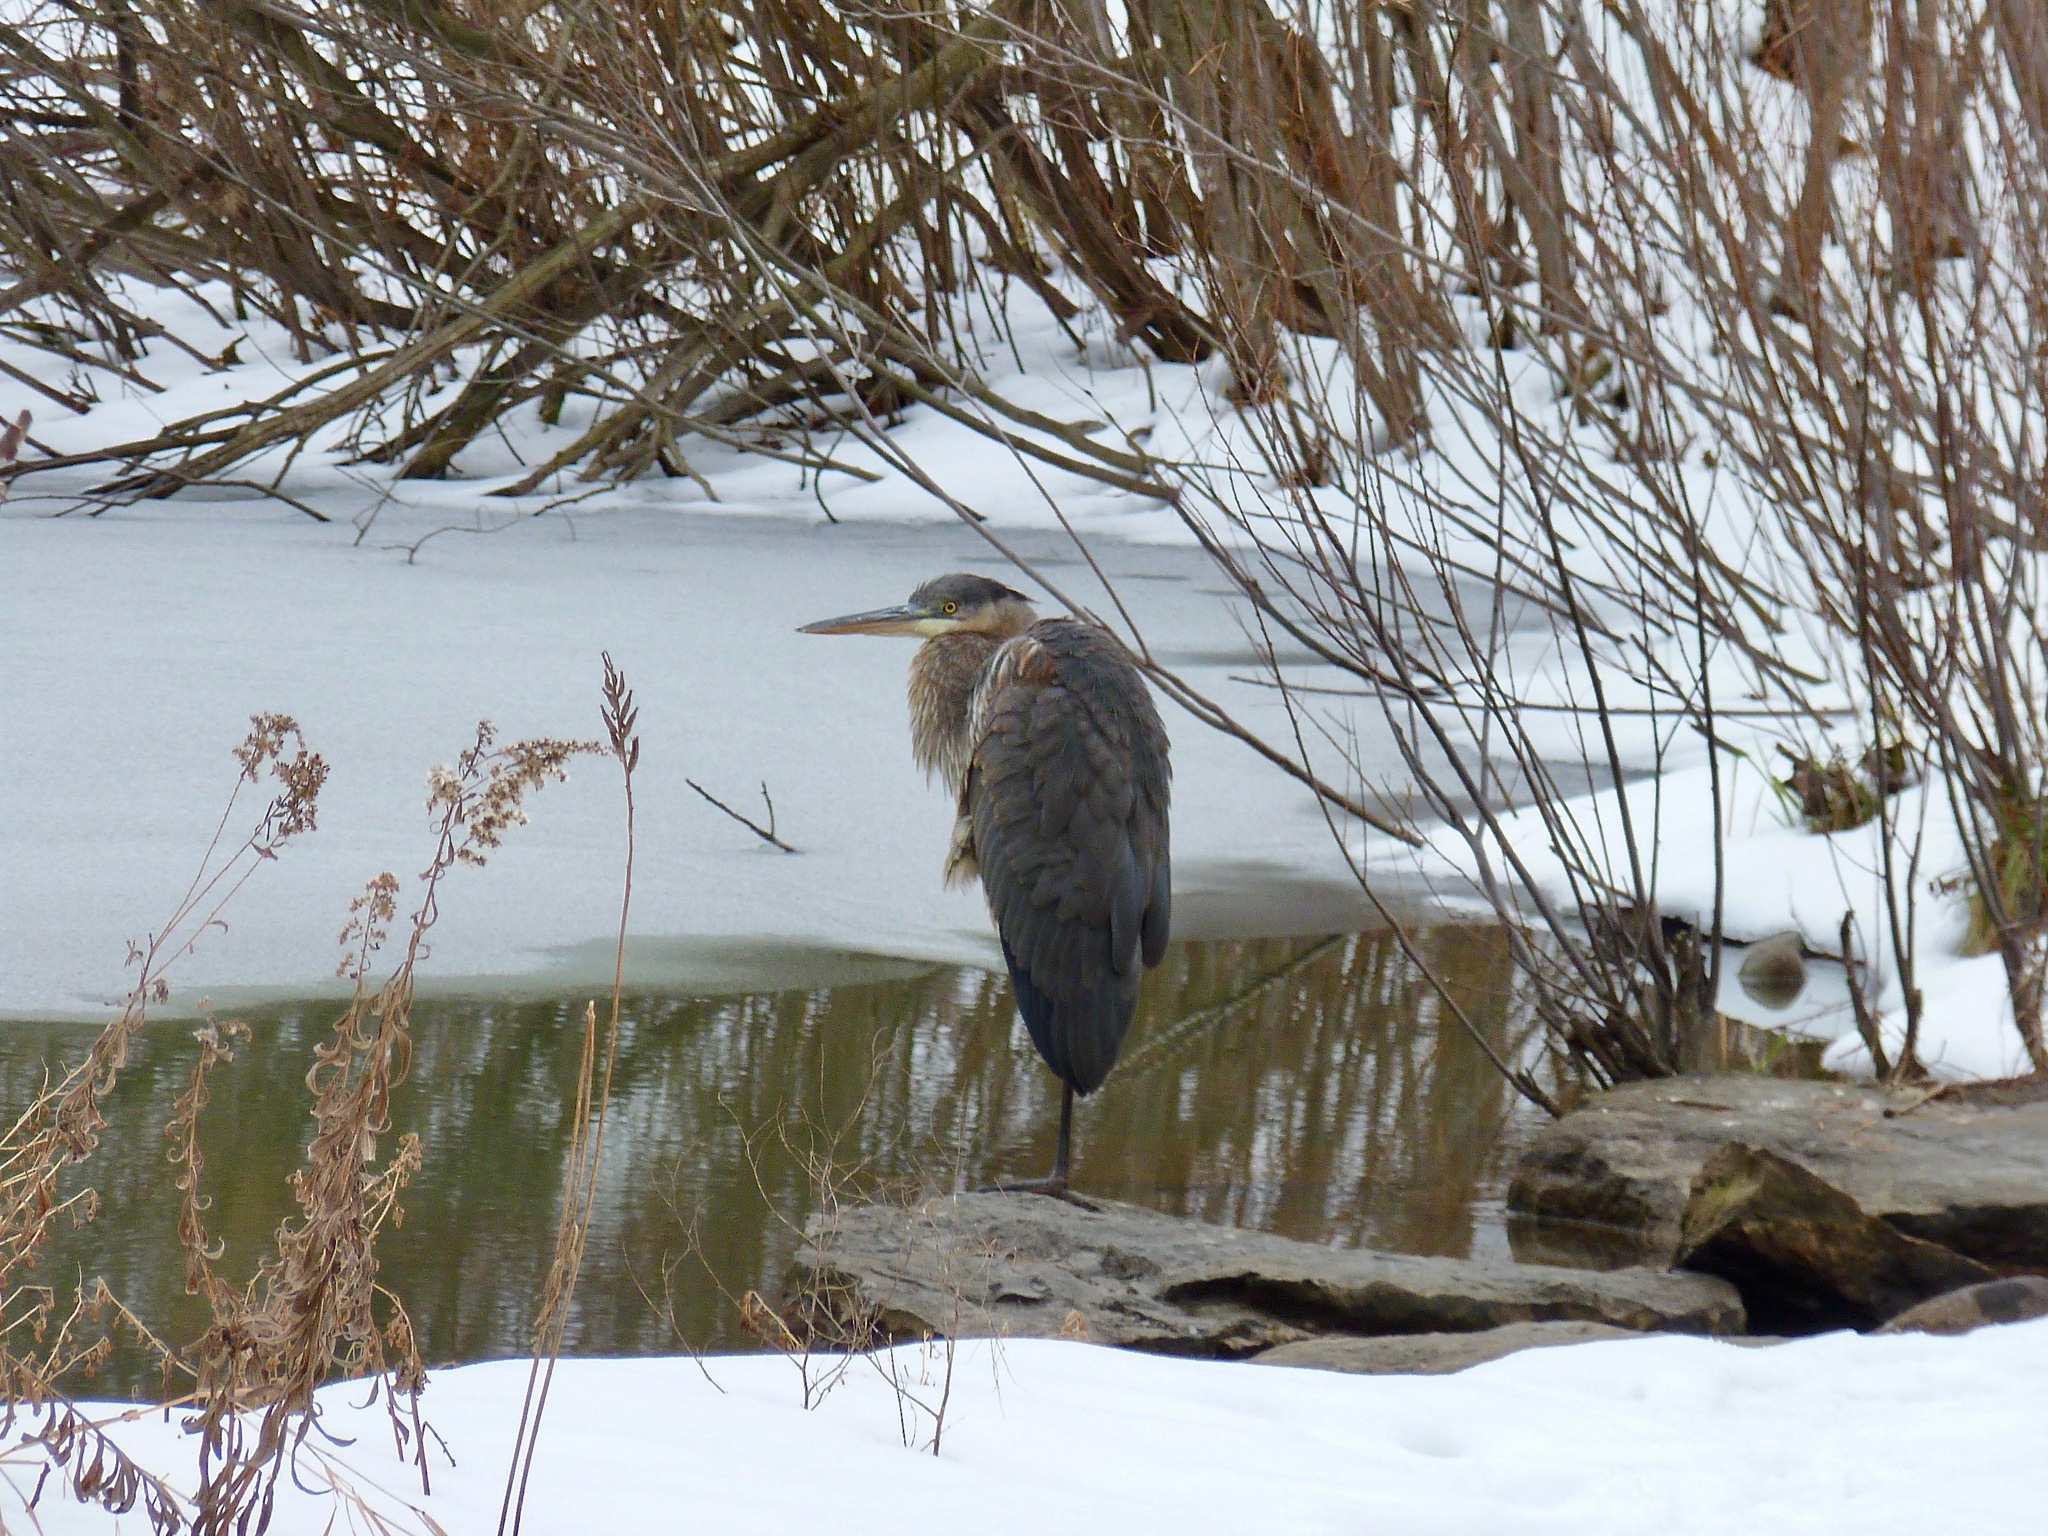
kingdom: Animalia
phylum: Chordata
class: Aves
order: Pelecaniformes
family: Ardeidae
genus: Ardea
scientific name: Ardea herodias
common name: Great blue heron
